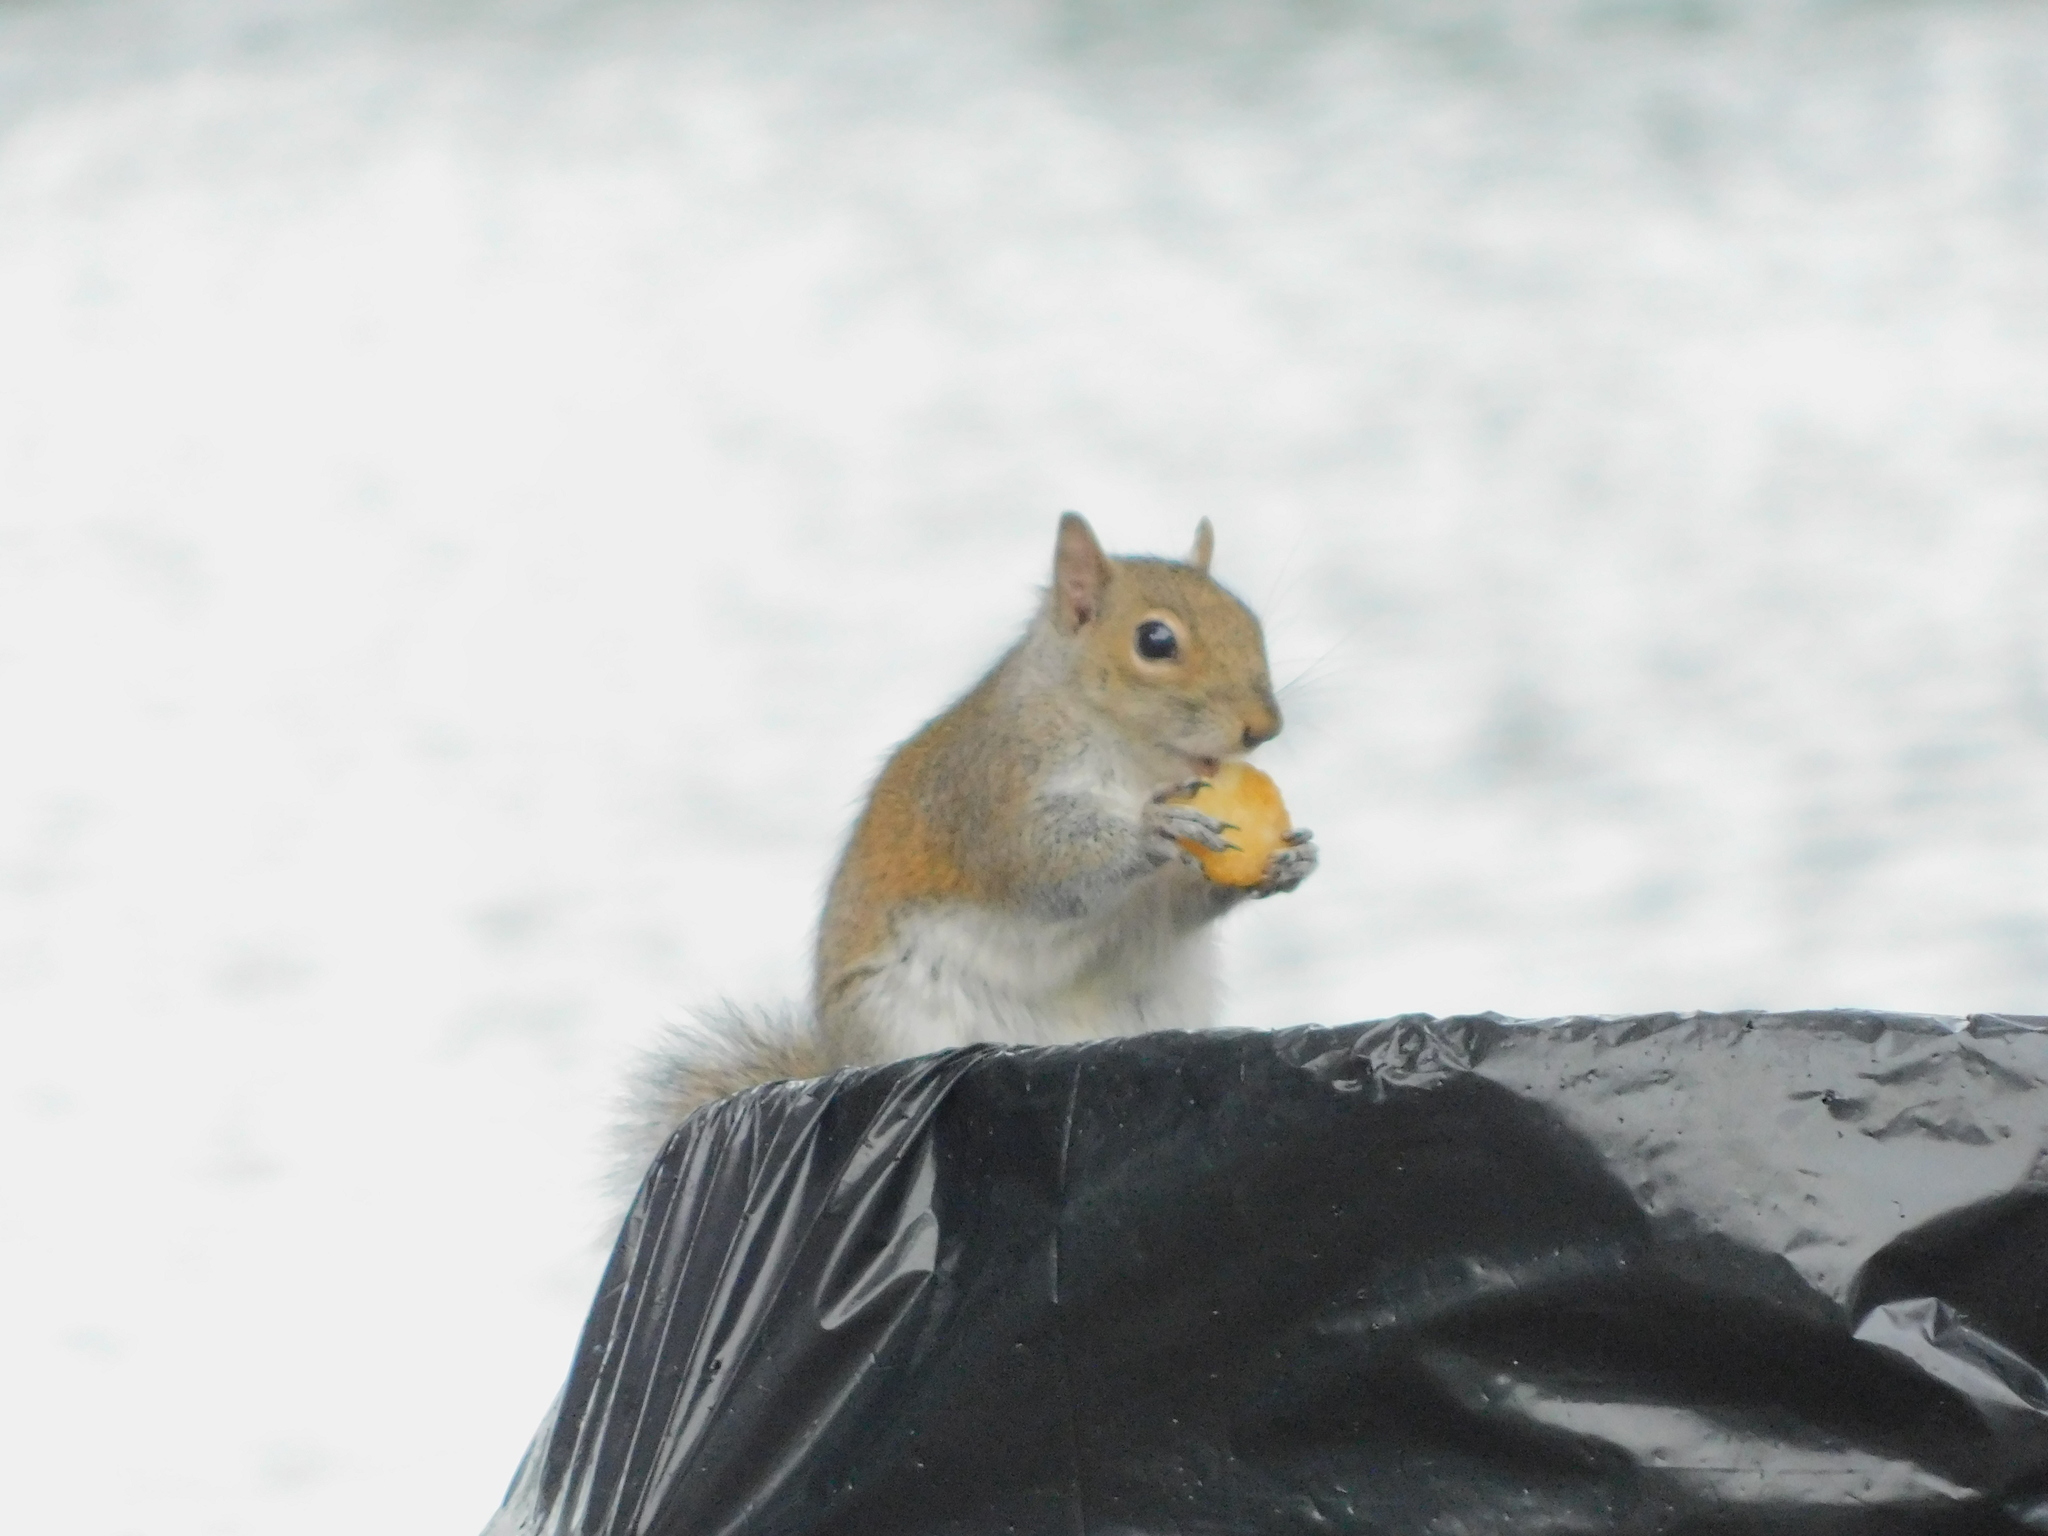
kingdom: Animalia
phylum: Chordata
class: Mammalia
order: Rodentia
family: Sciuridae
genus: Sciurus
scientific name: Sciurus carolinensis
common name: Eastern gray squirrel
